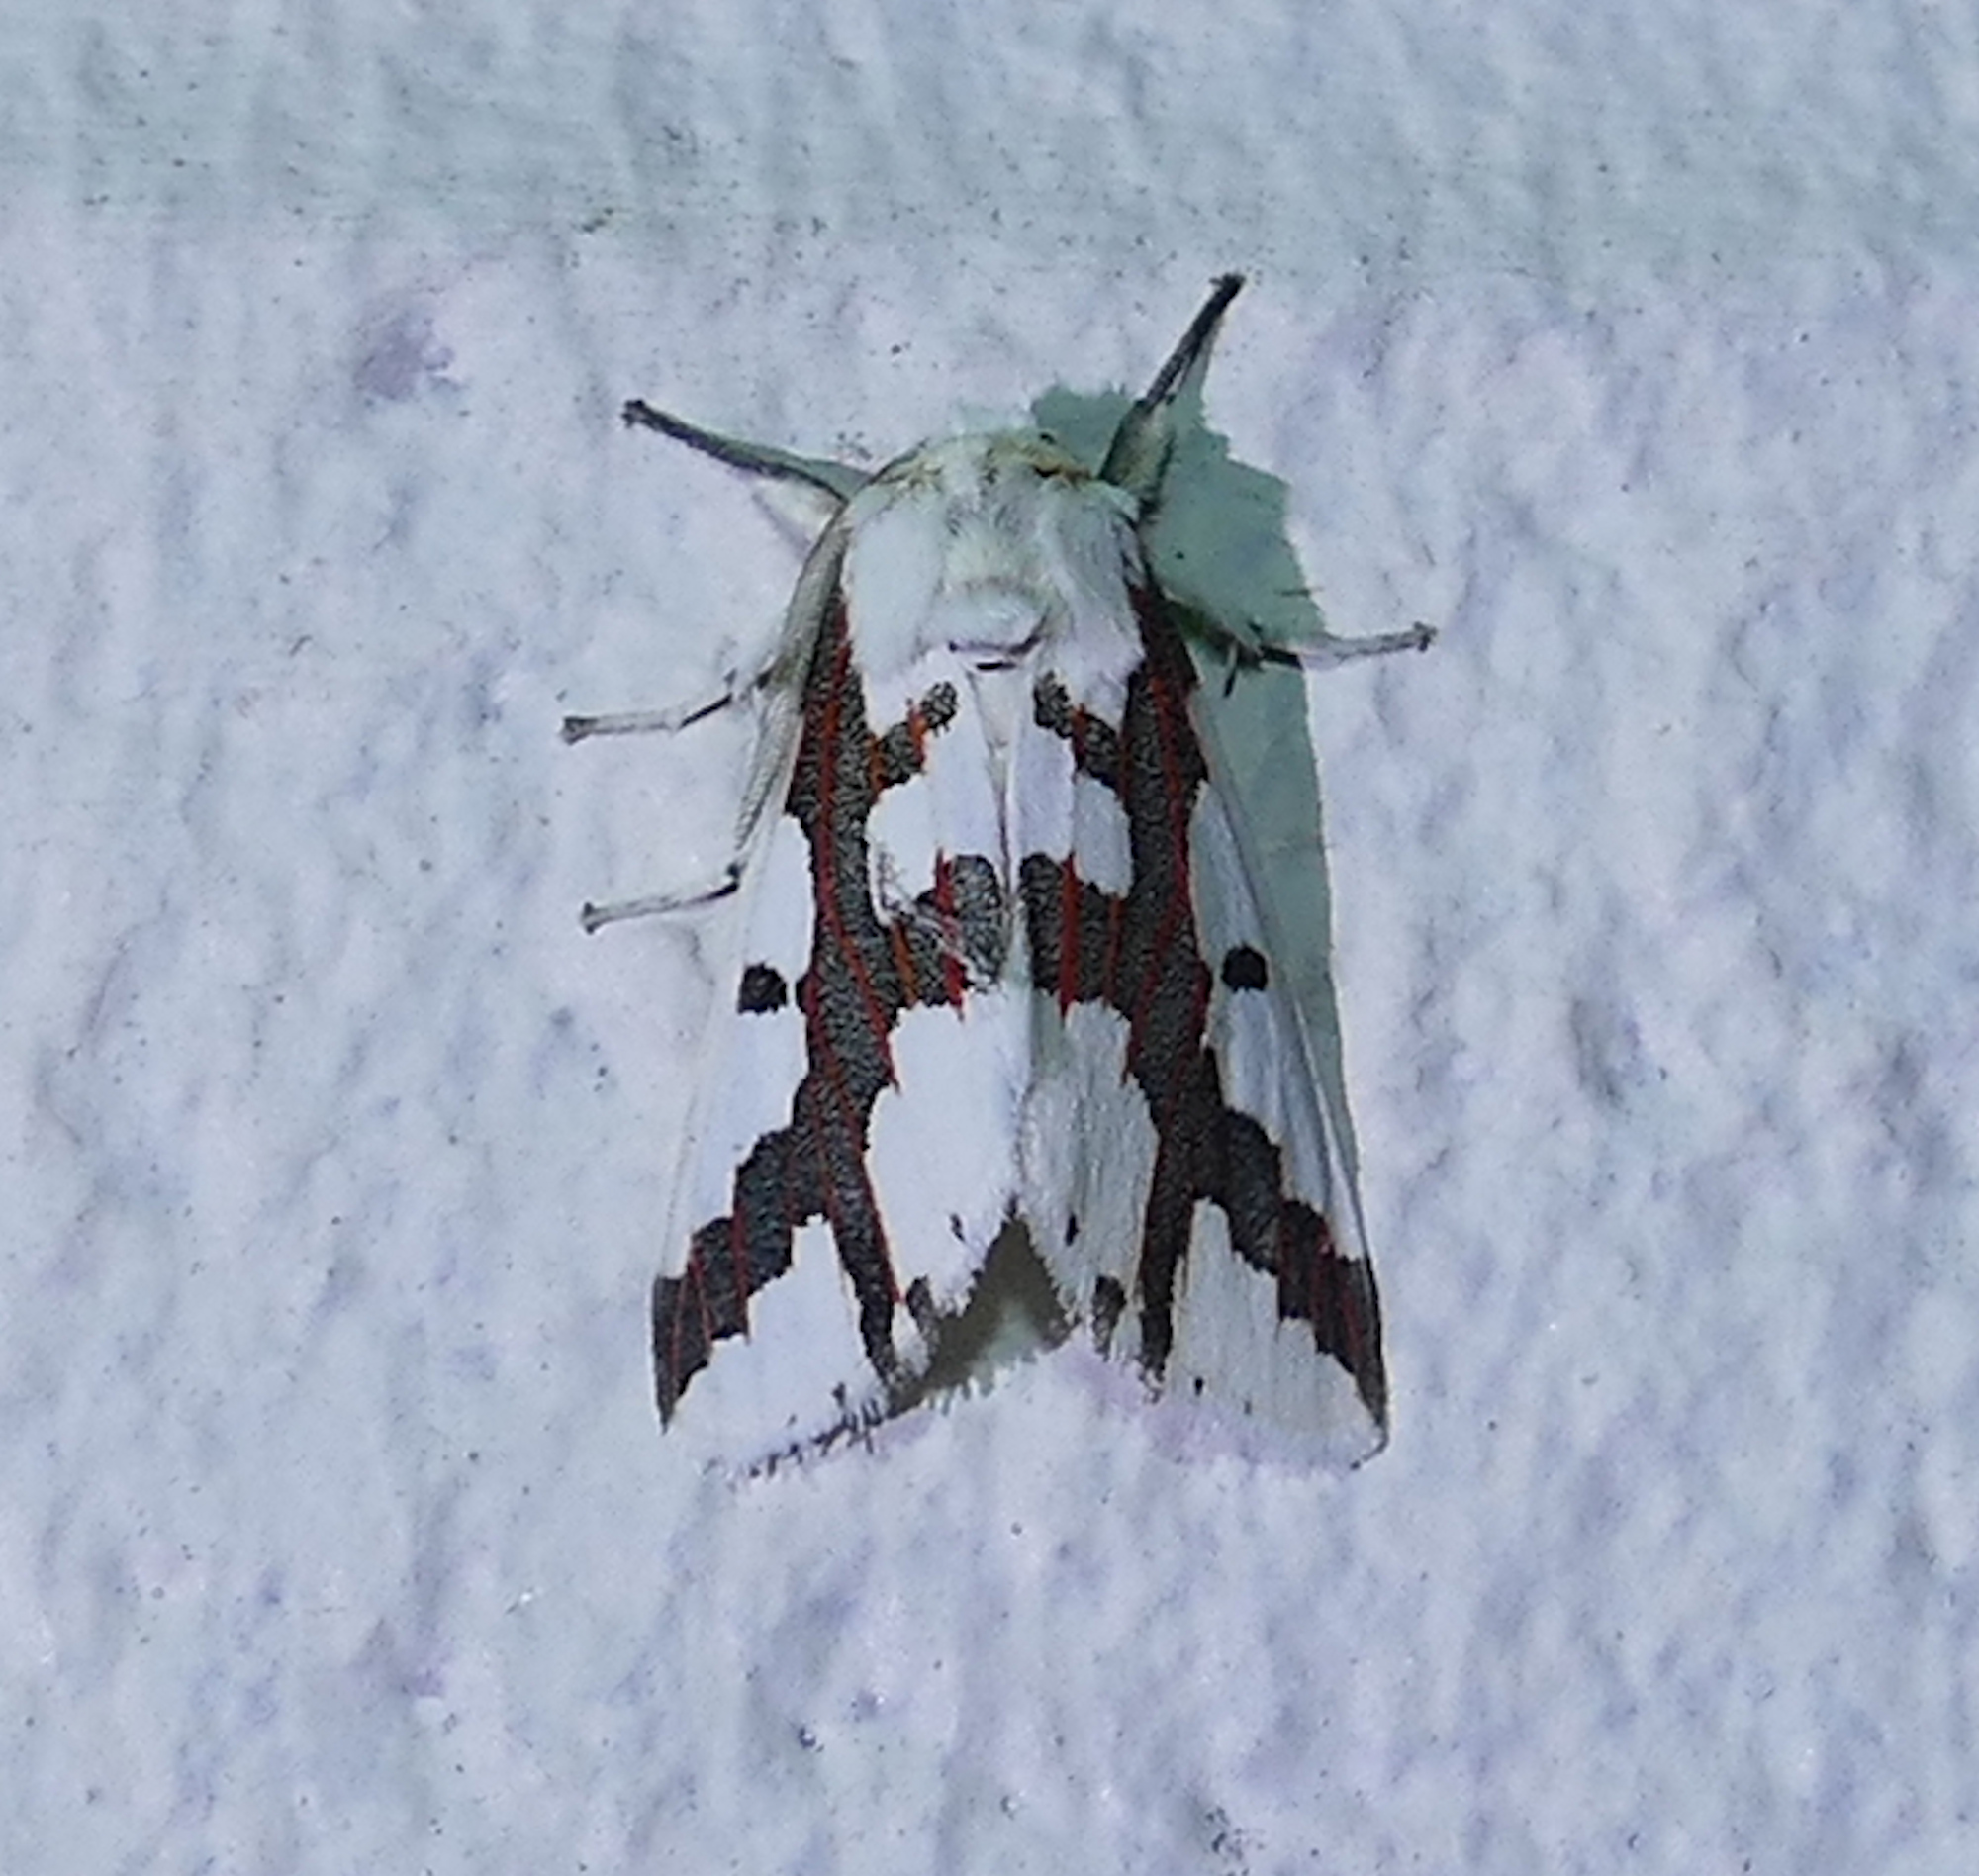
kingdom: Animalia
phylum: Arthropoda
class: Insecta
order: Lepidoptera
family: Erebidae
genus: Euerythra
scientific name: Euerythra phasma
